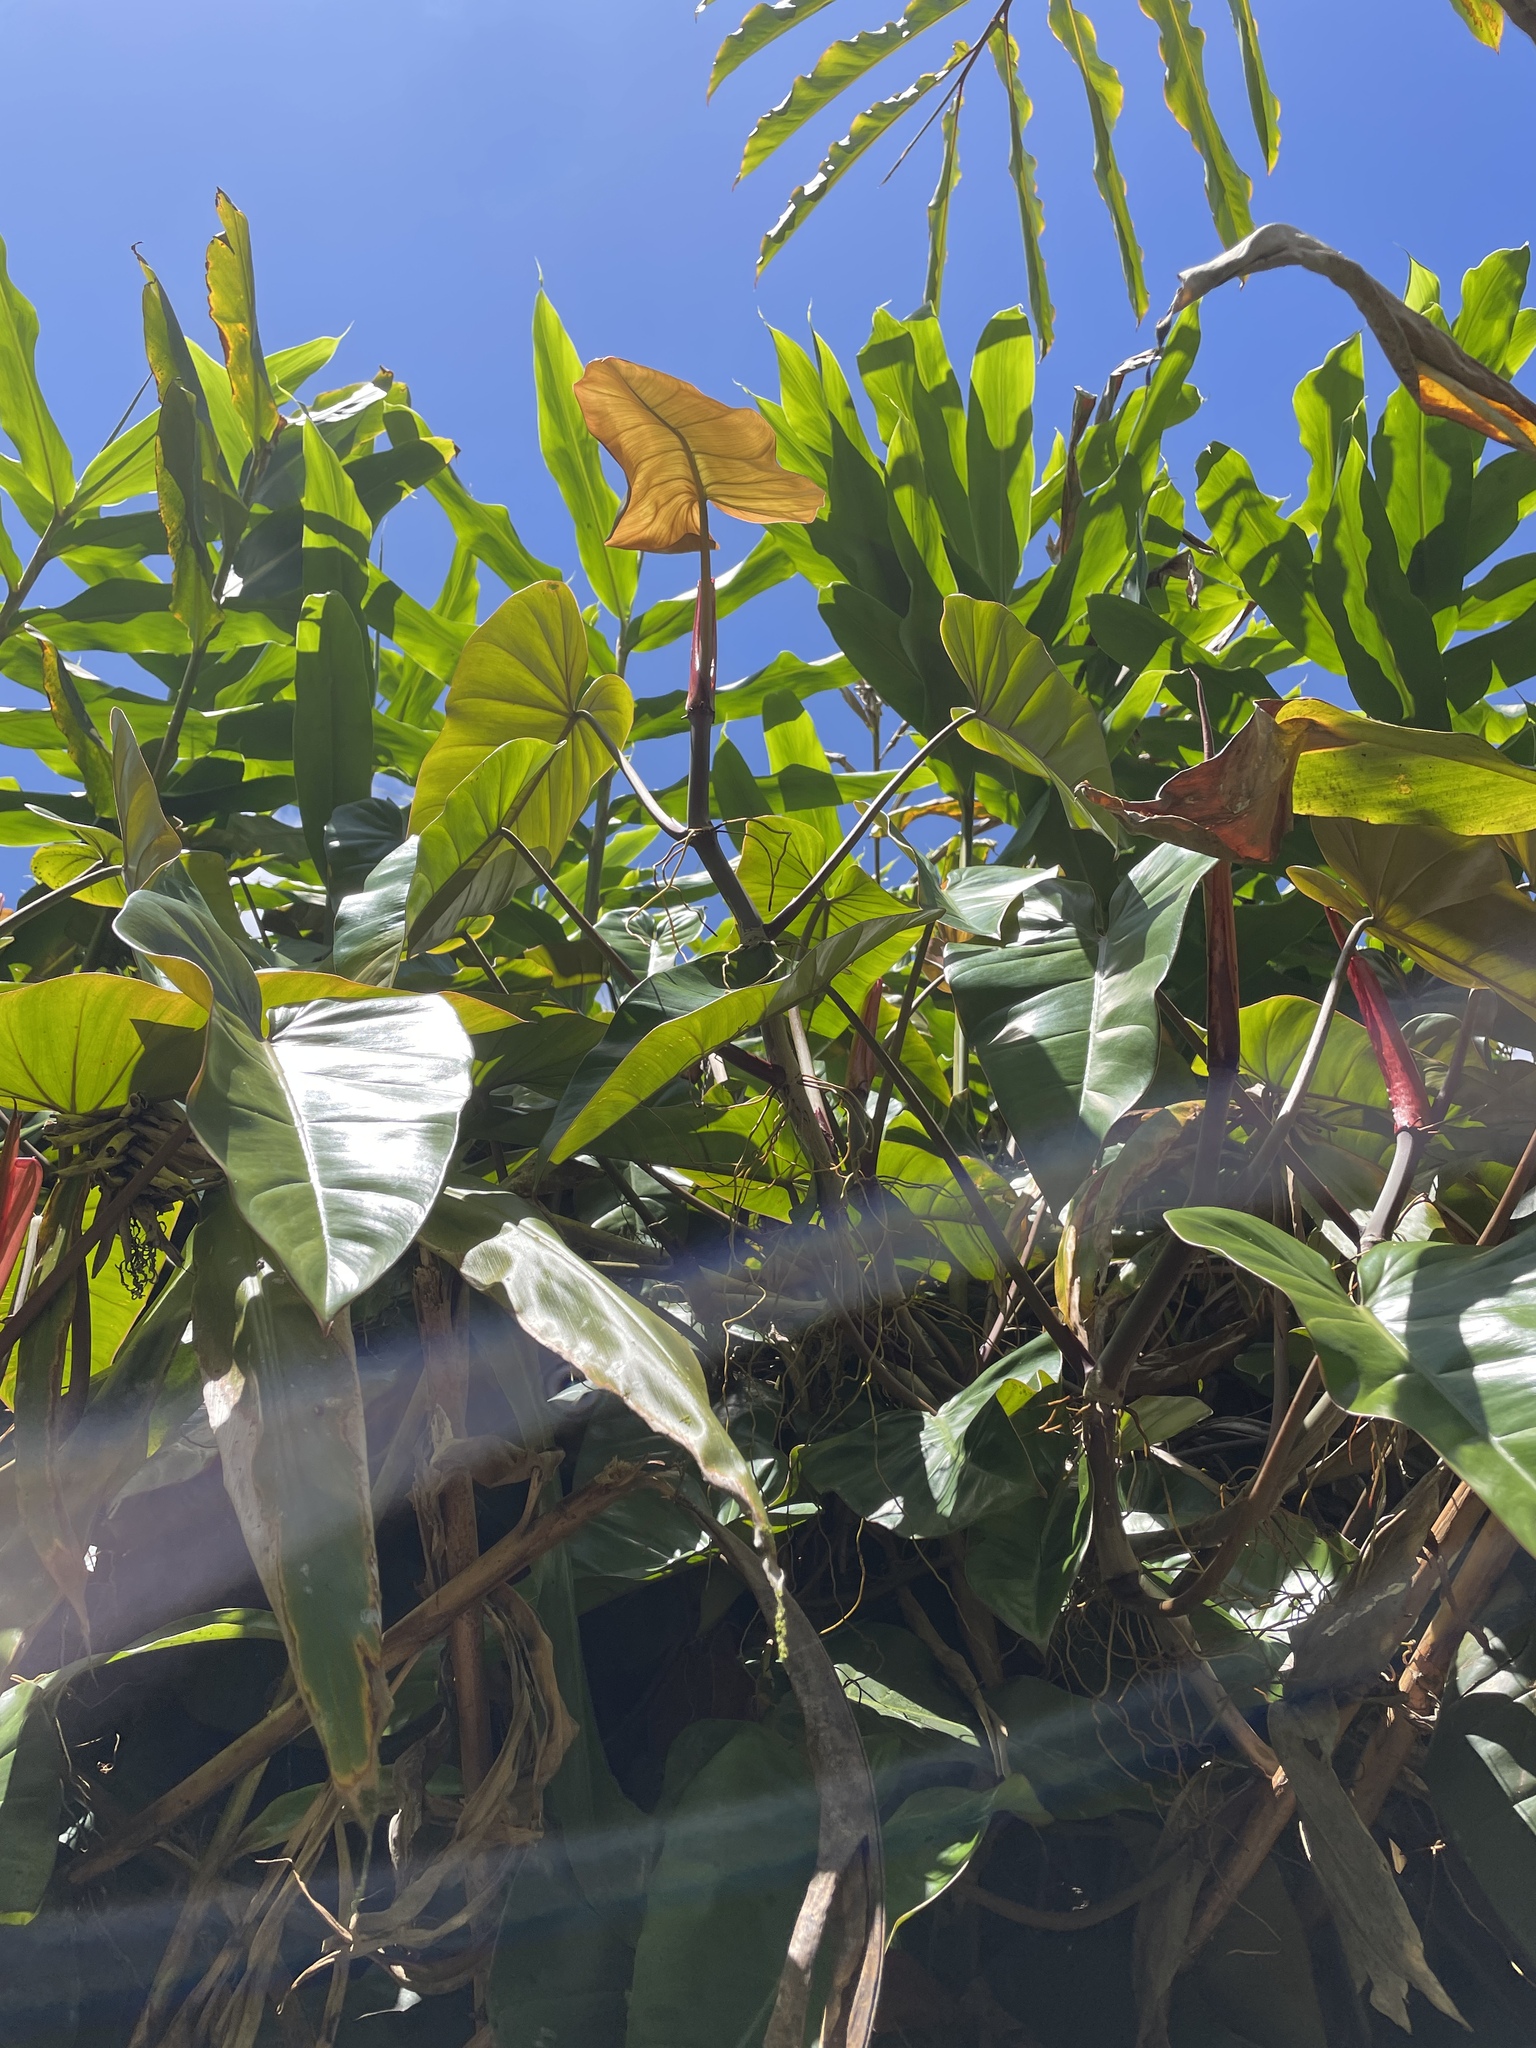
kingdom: Plantae
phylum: Tracheophyta
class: Liliopsida
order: Alismatales
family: Araceae
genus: Philodendron
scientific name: Philodendron erubescens
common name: Philodendron
